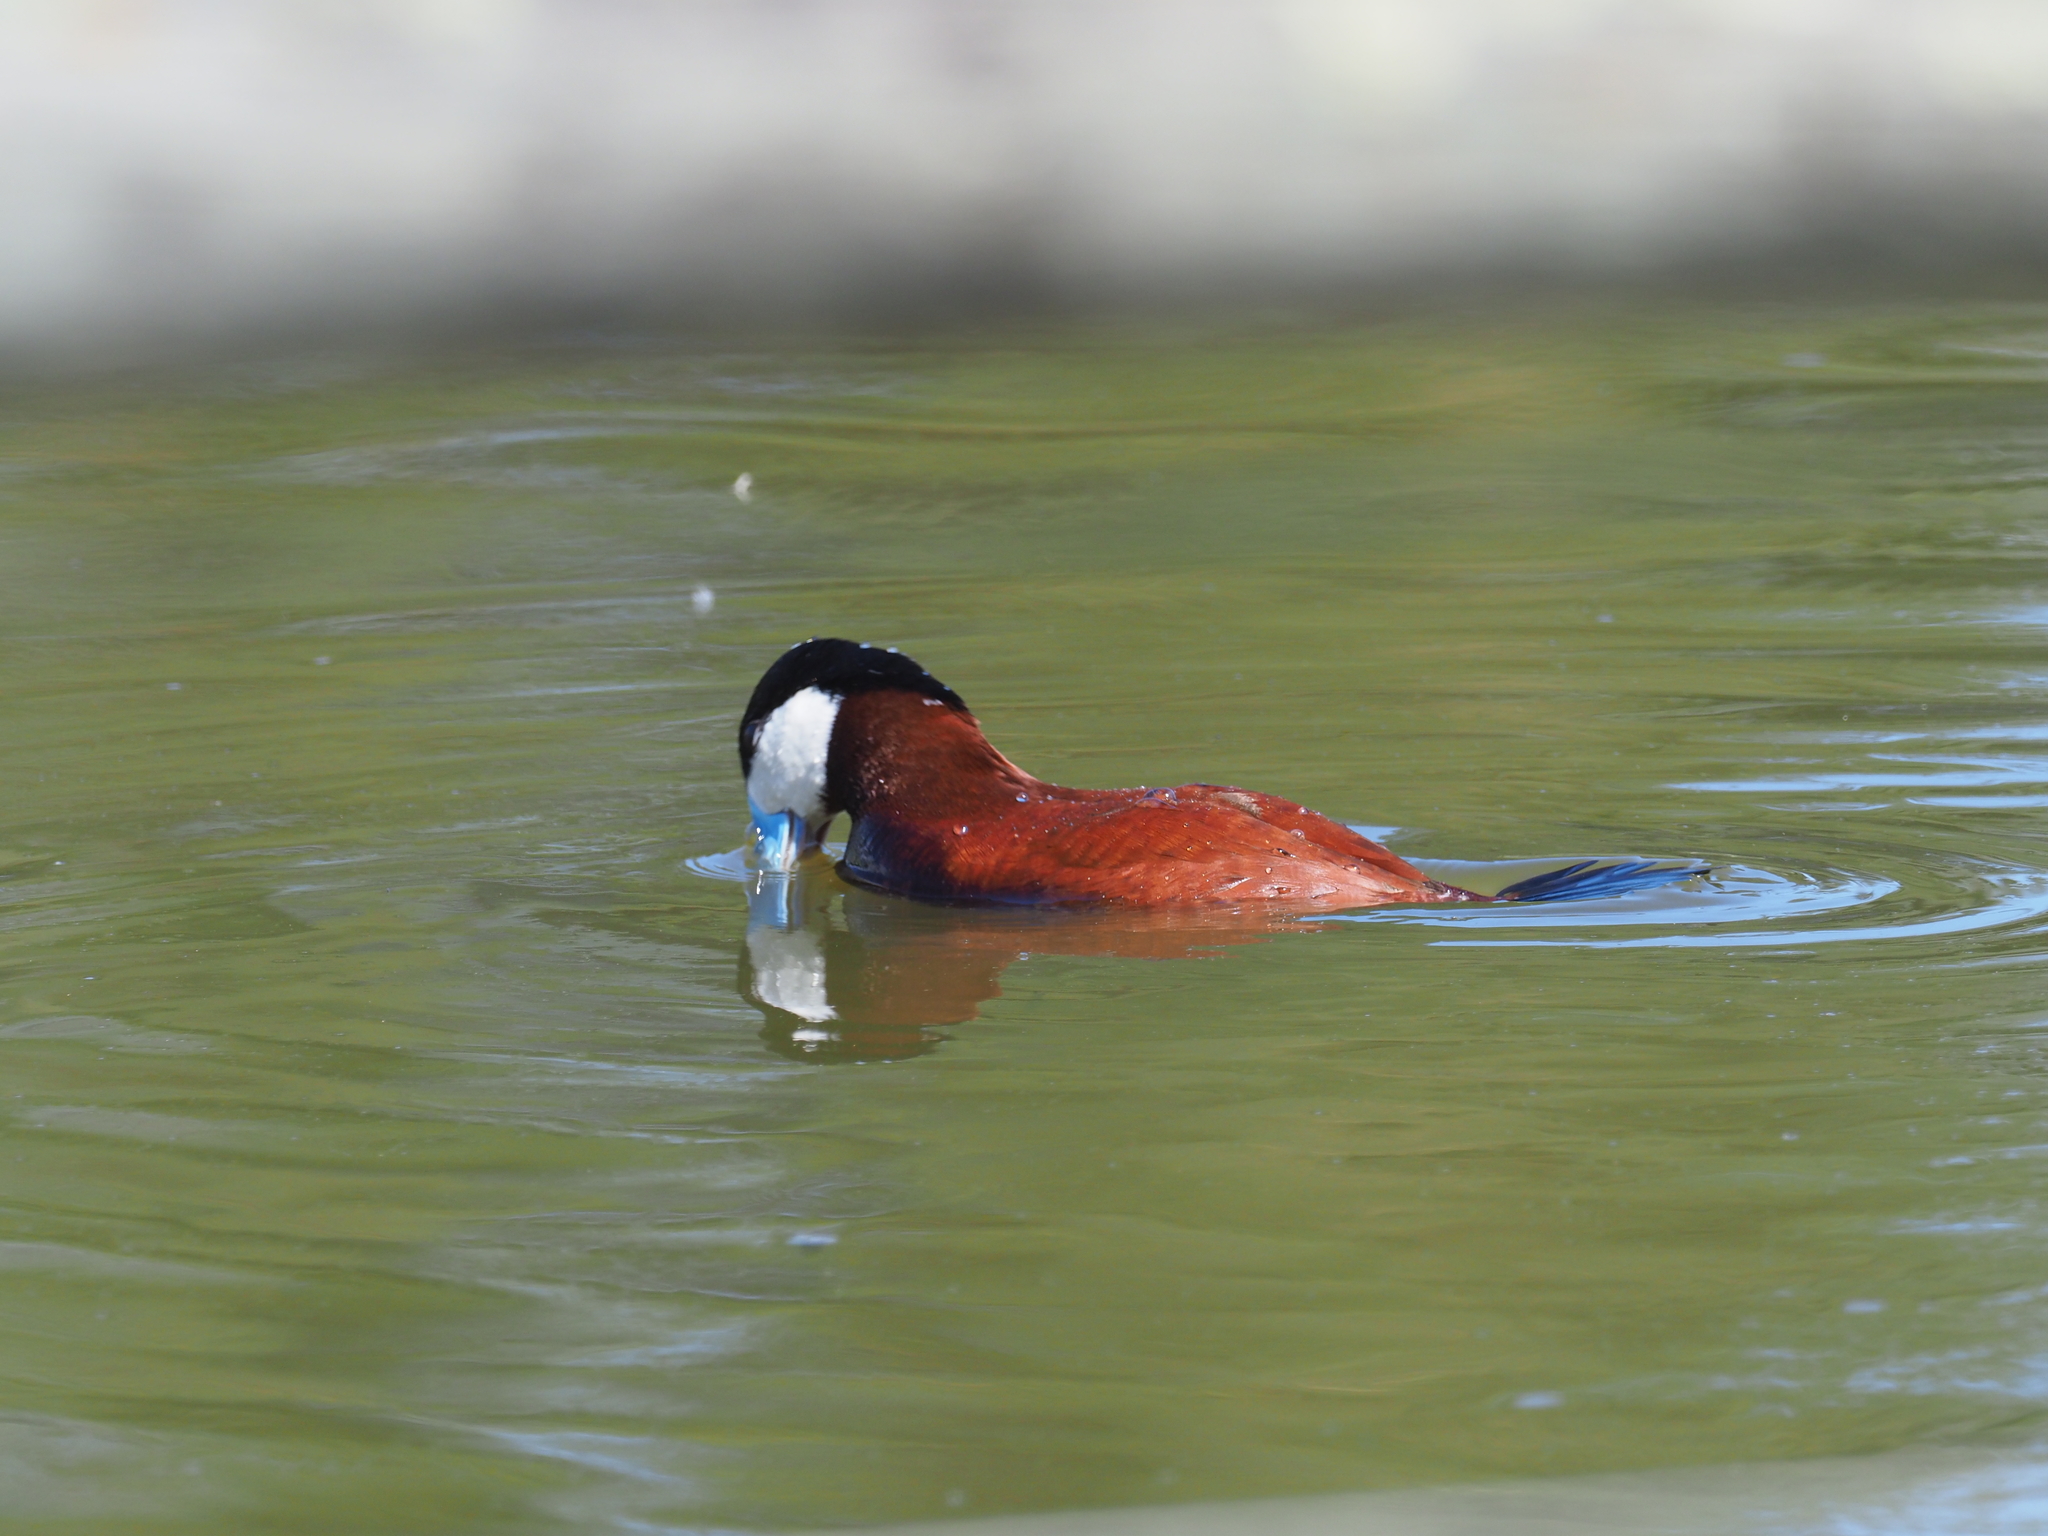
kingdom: Animalia
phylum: Chordata
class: Aves
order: Anseriformes
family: Anatidae
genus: Oxyura
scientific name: Oxyura jamaicensis
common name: Ruddy duck
